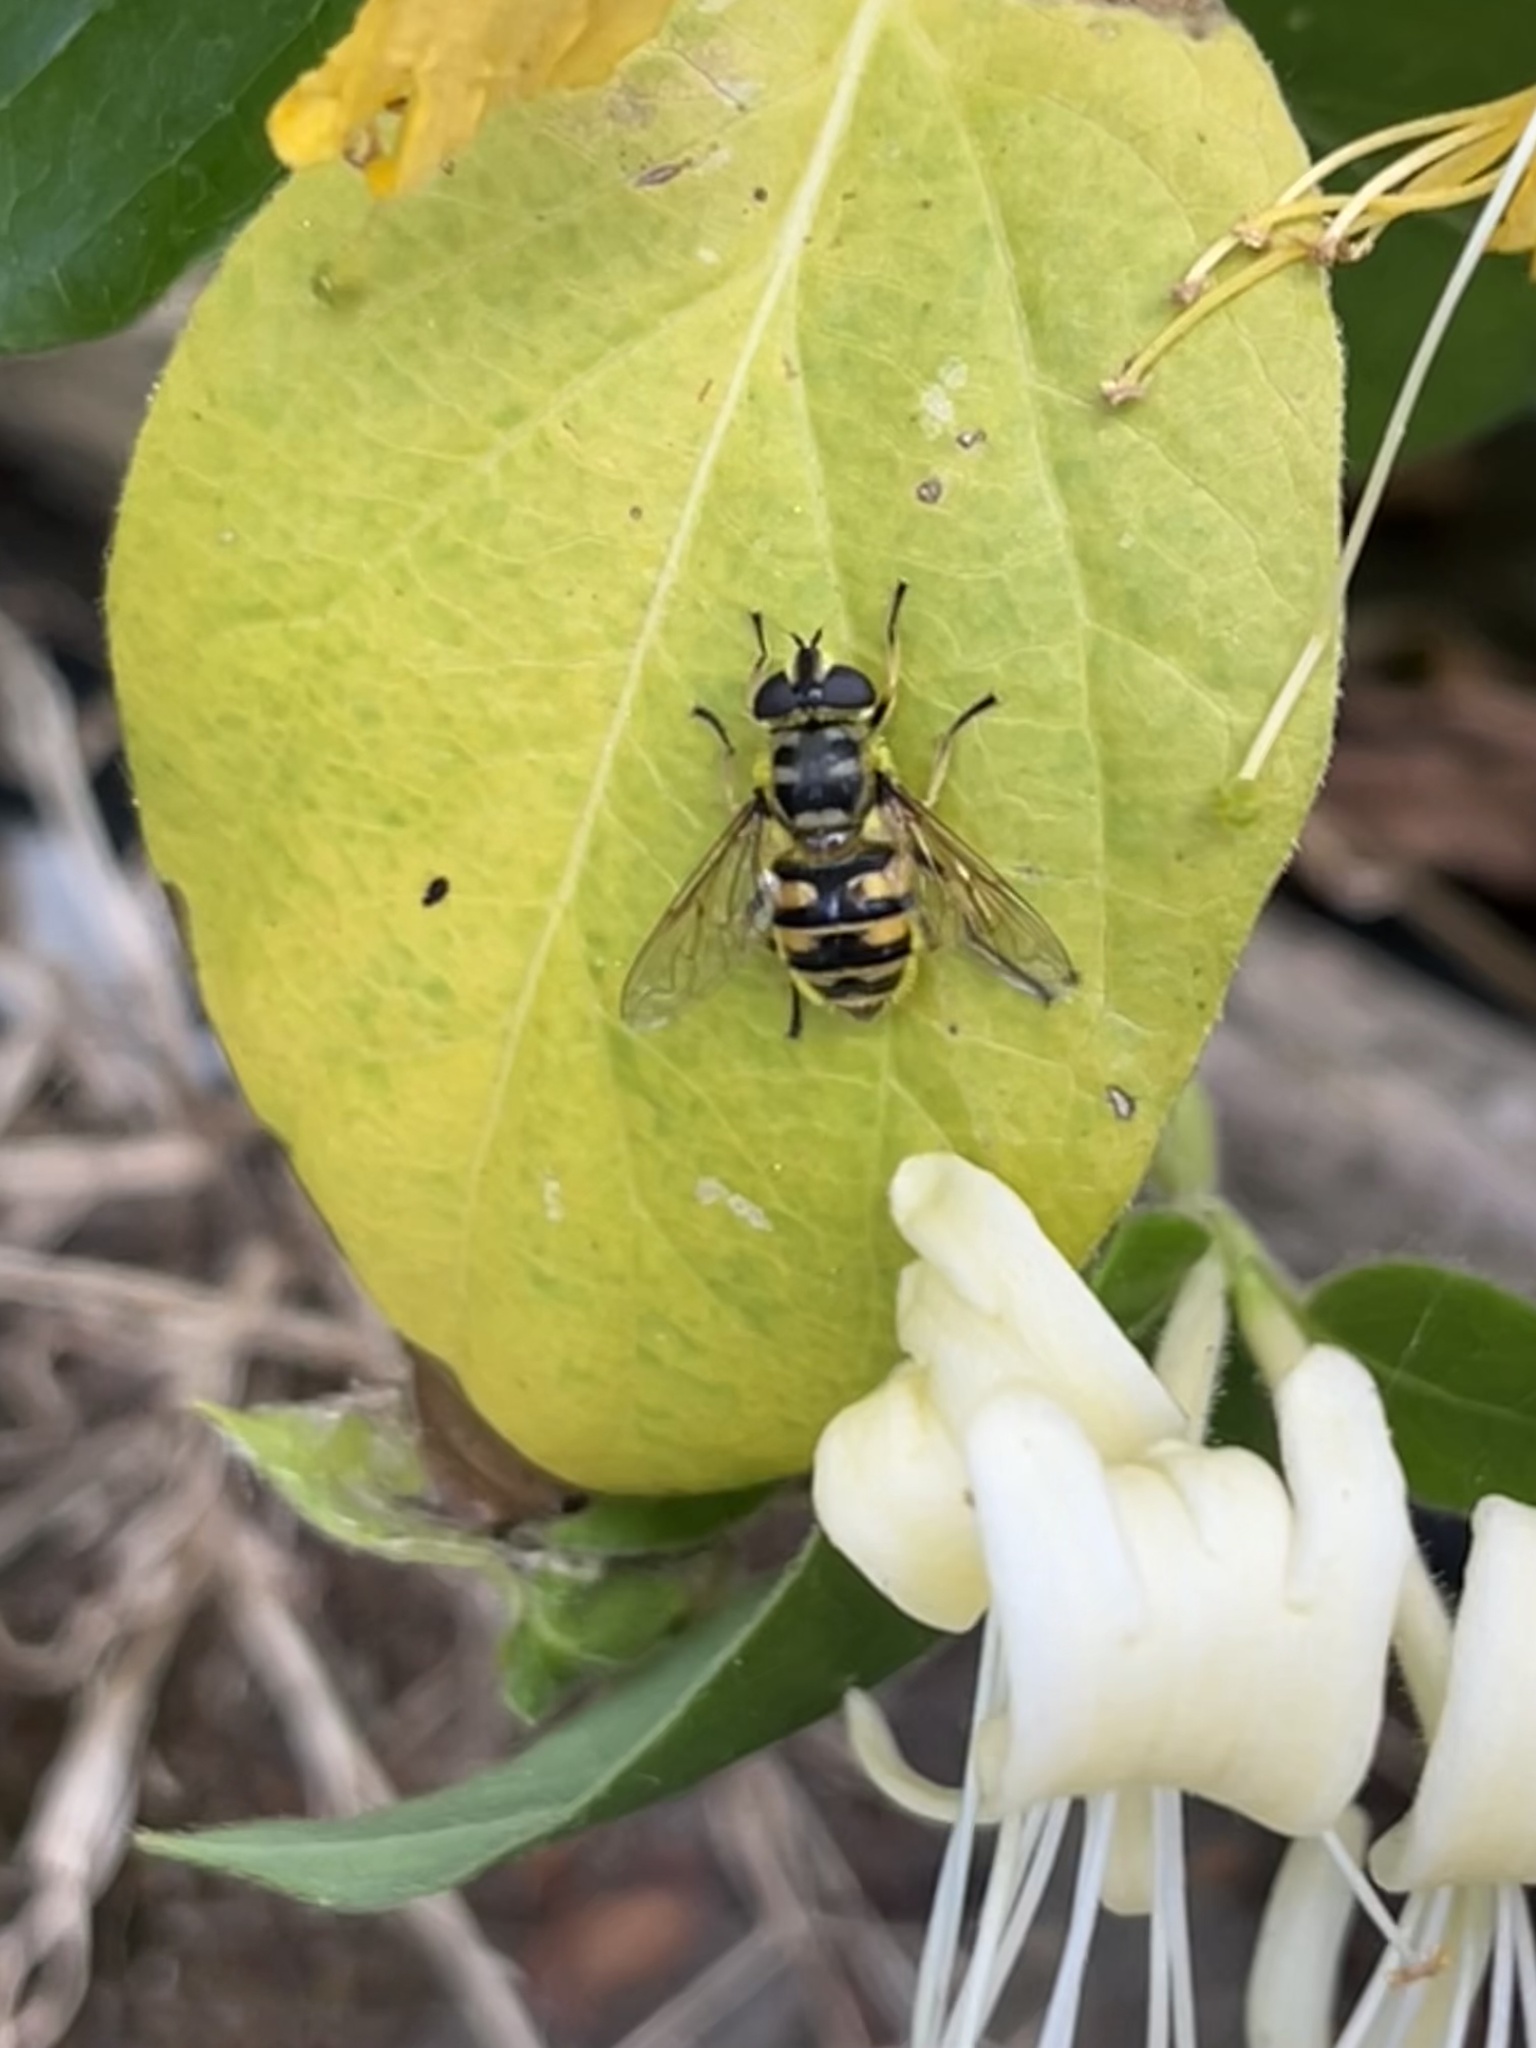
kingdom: Animalia
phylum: Arthropoda
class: Insecta
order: Diptera
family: Syrphidae
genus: Myathropa
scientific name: Myathropa florea
